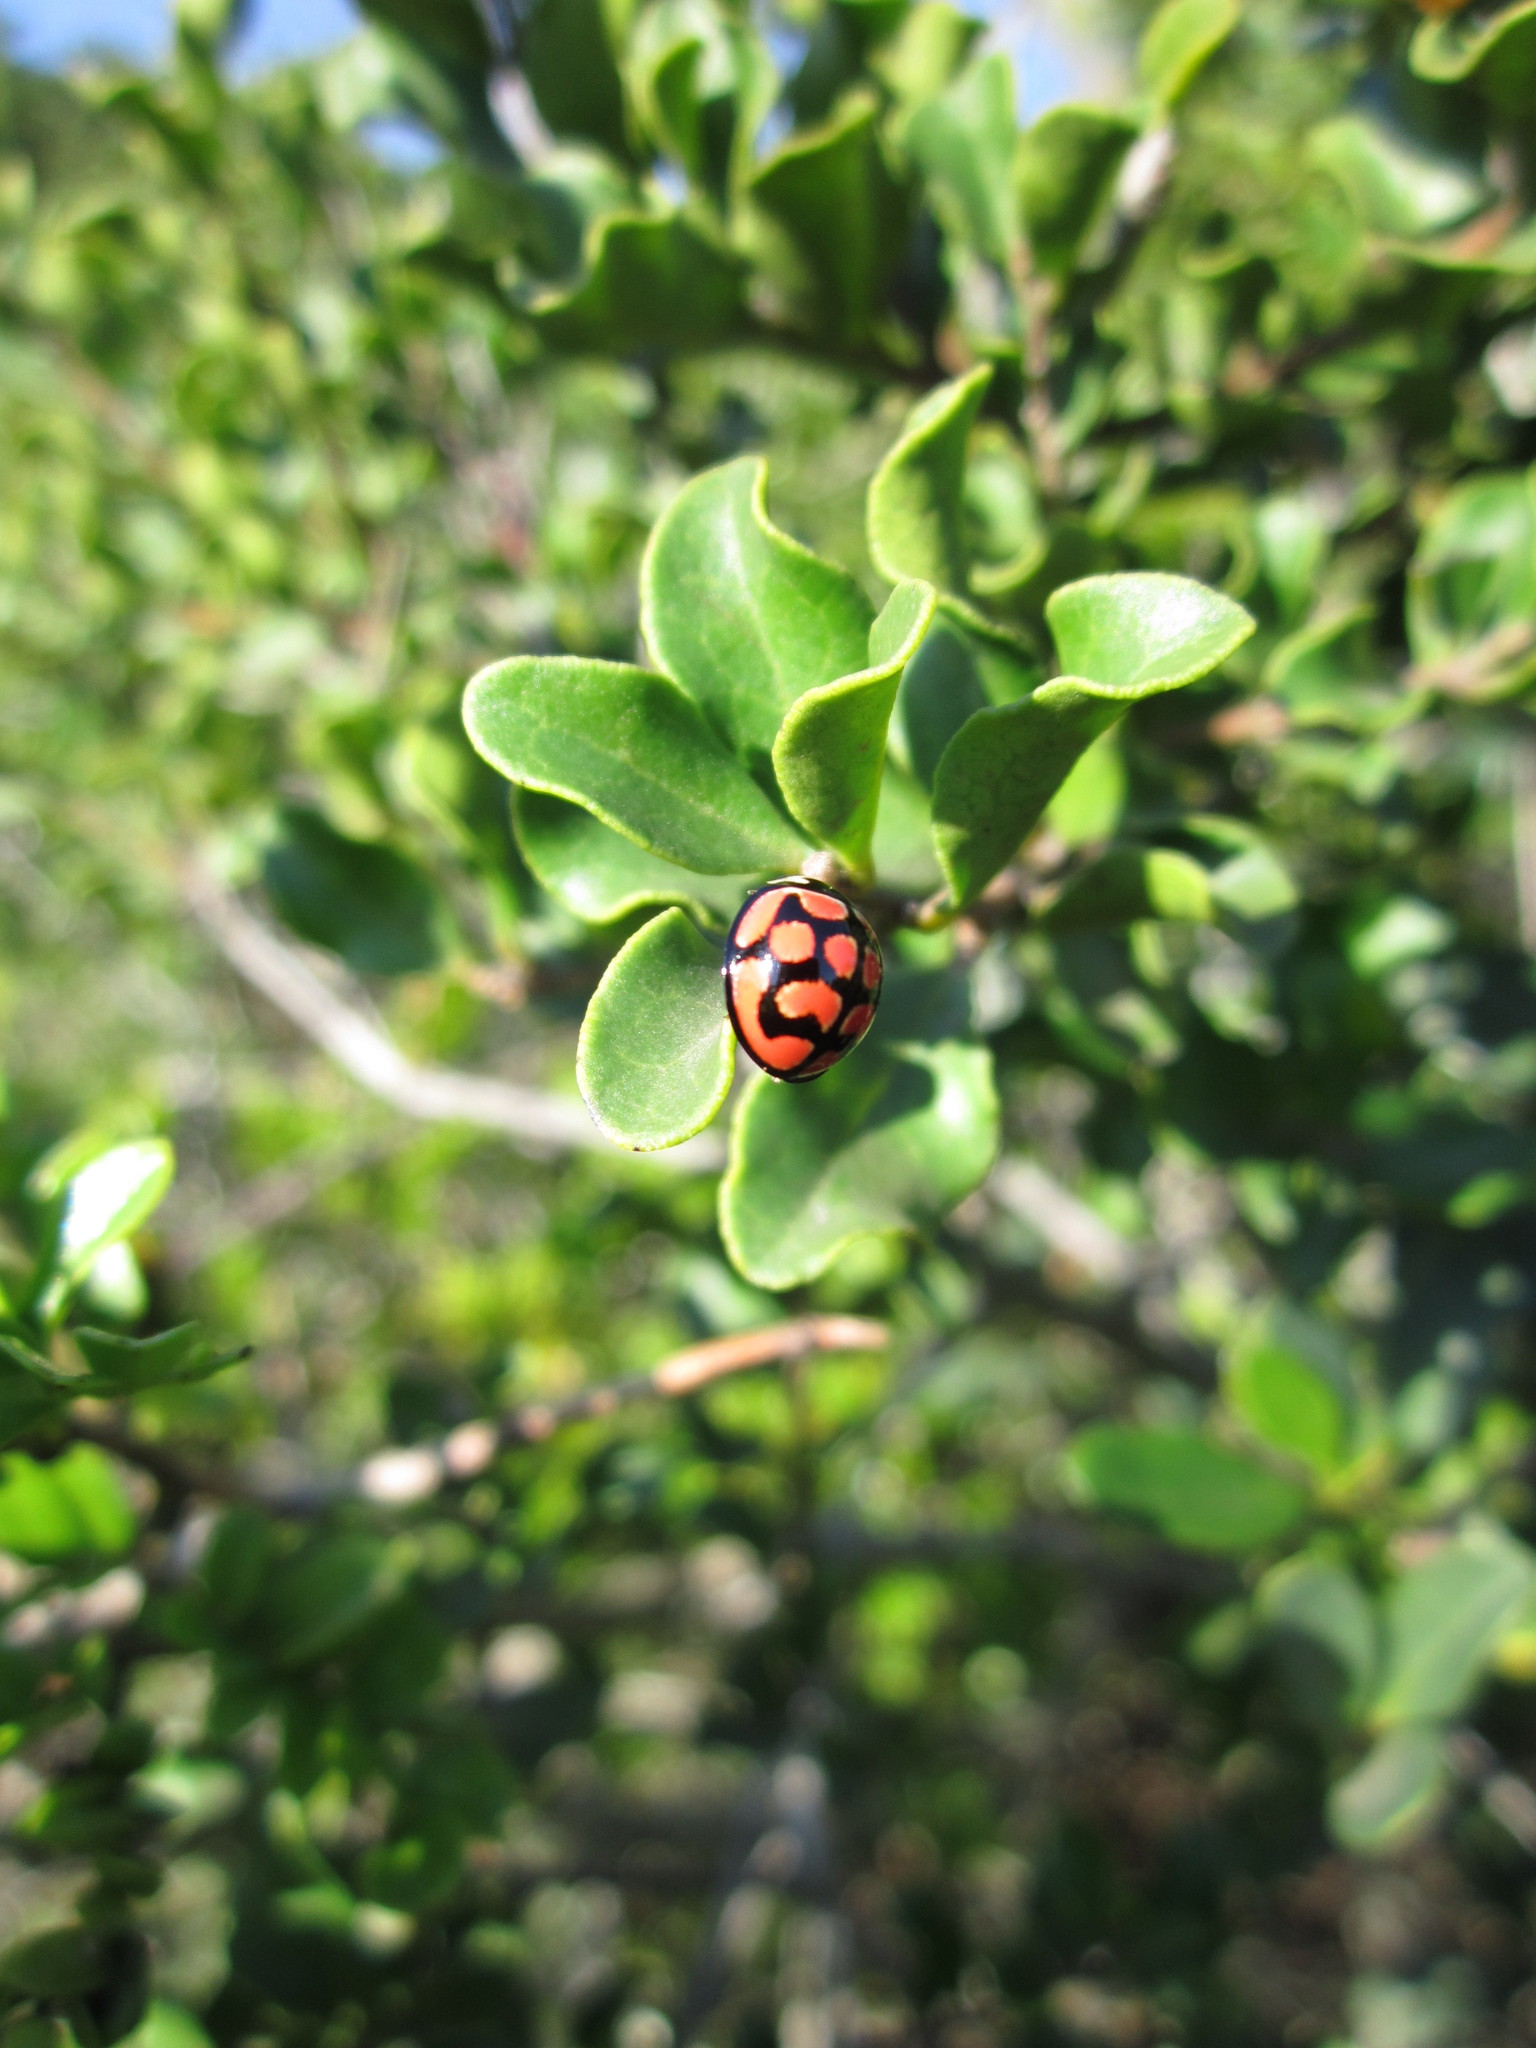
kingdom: Animalia
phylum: Arthropoda
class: Insecta
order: Coleoptera
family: Coccinellidae
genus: Cheilomenes
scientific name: Cheilomenes lunata
